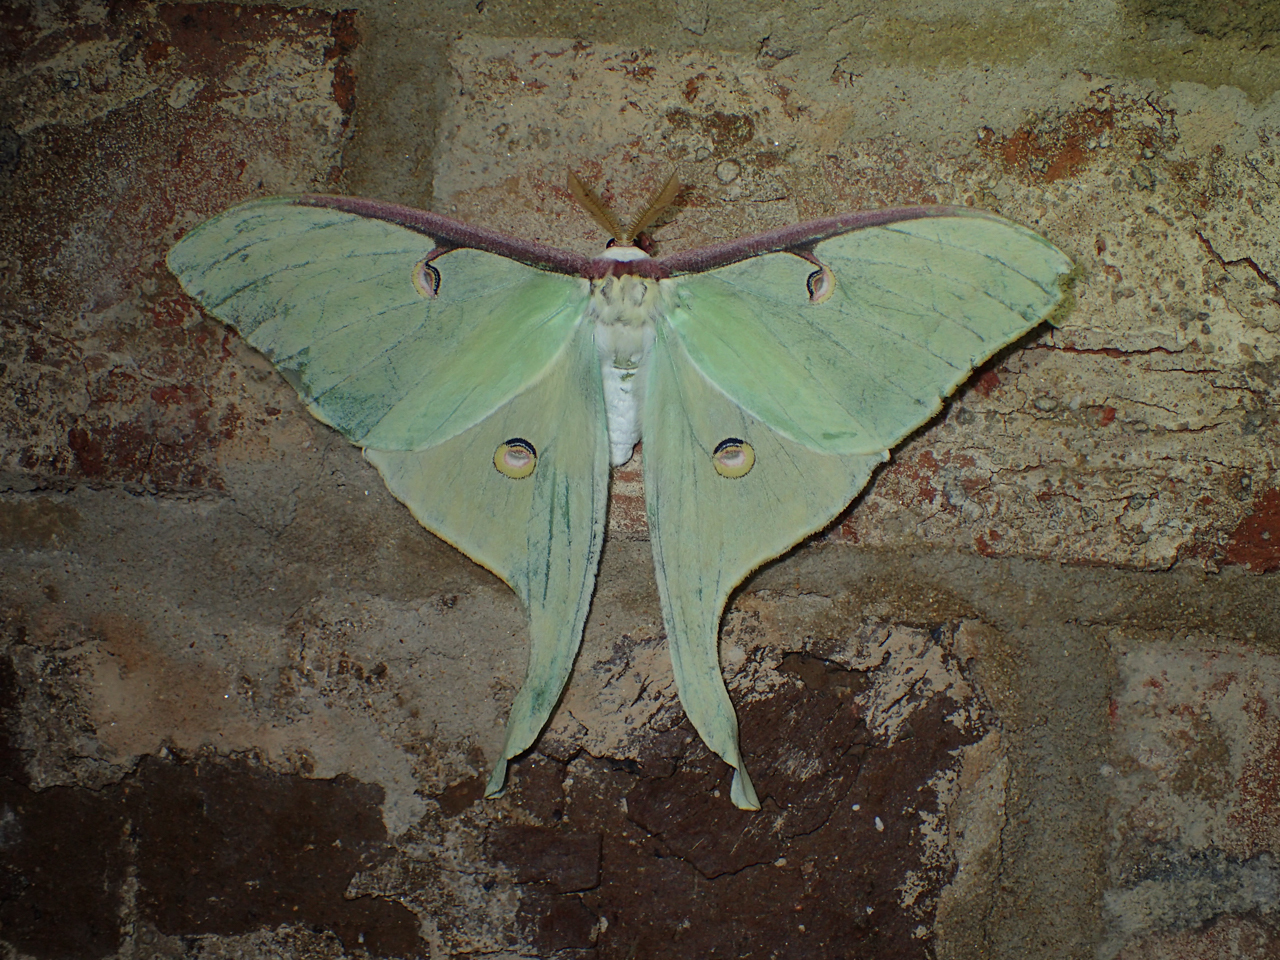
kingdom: Animalia
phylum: Arthropoda
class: Insecta
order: Lepidoptera
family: Saturniidae
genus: Actias
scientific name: Actias luna
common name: Luna moth
